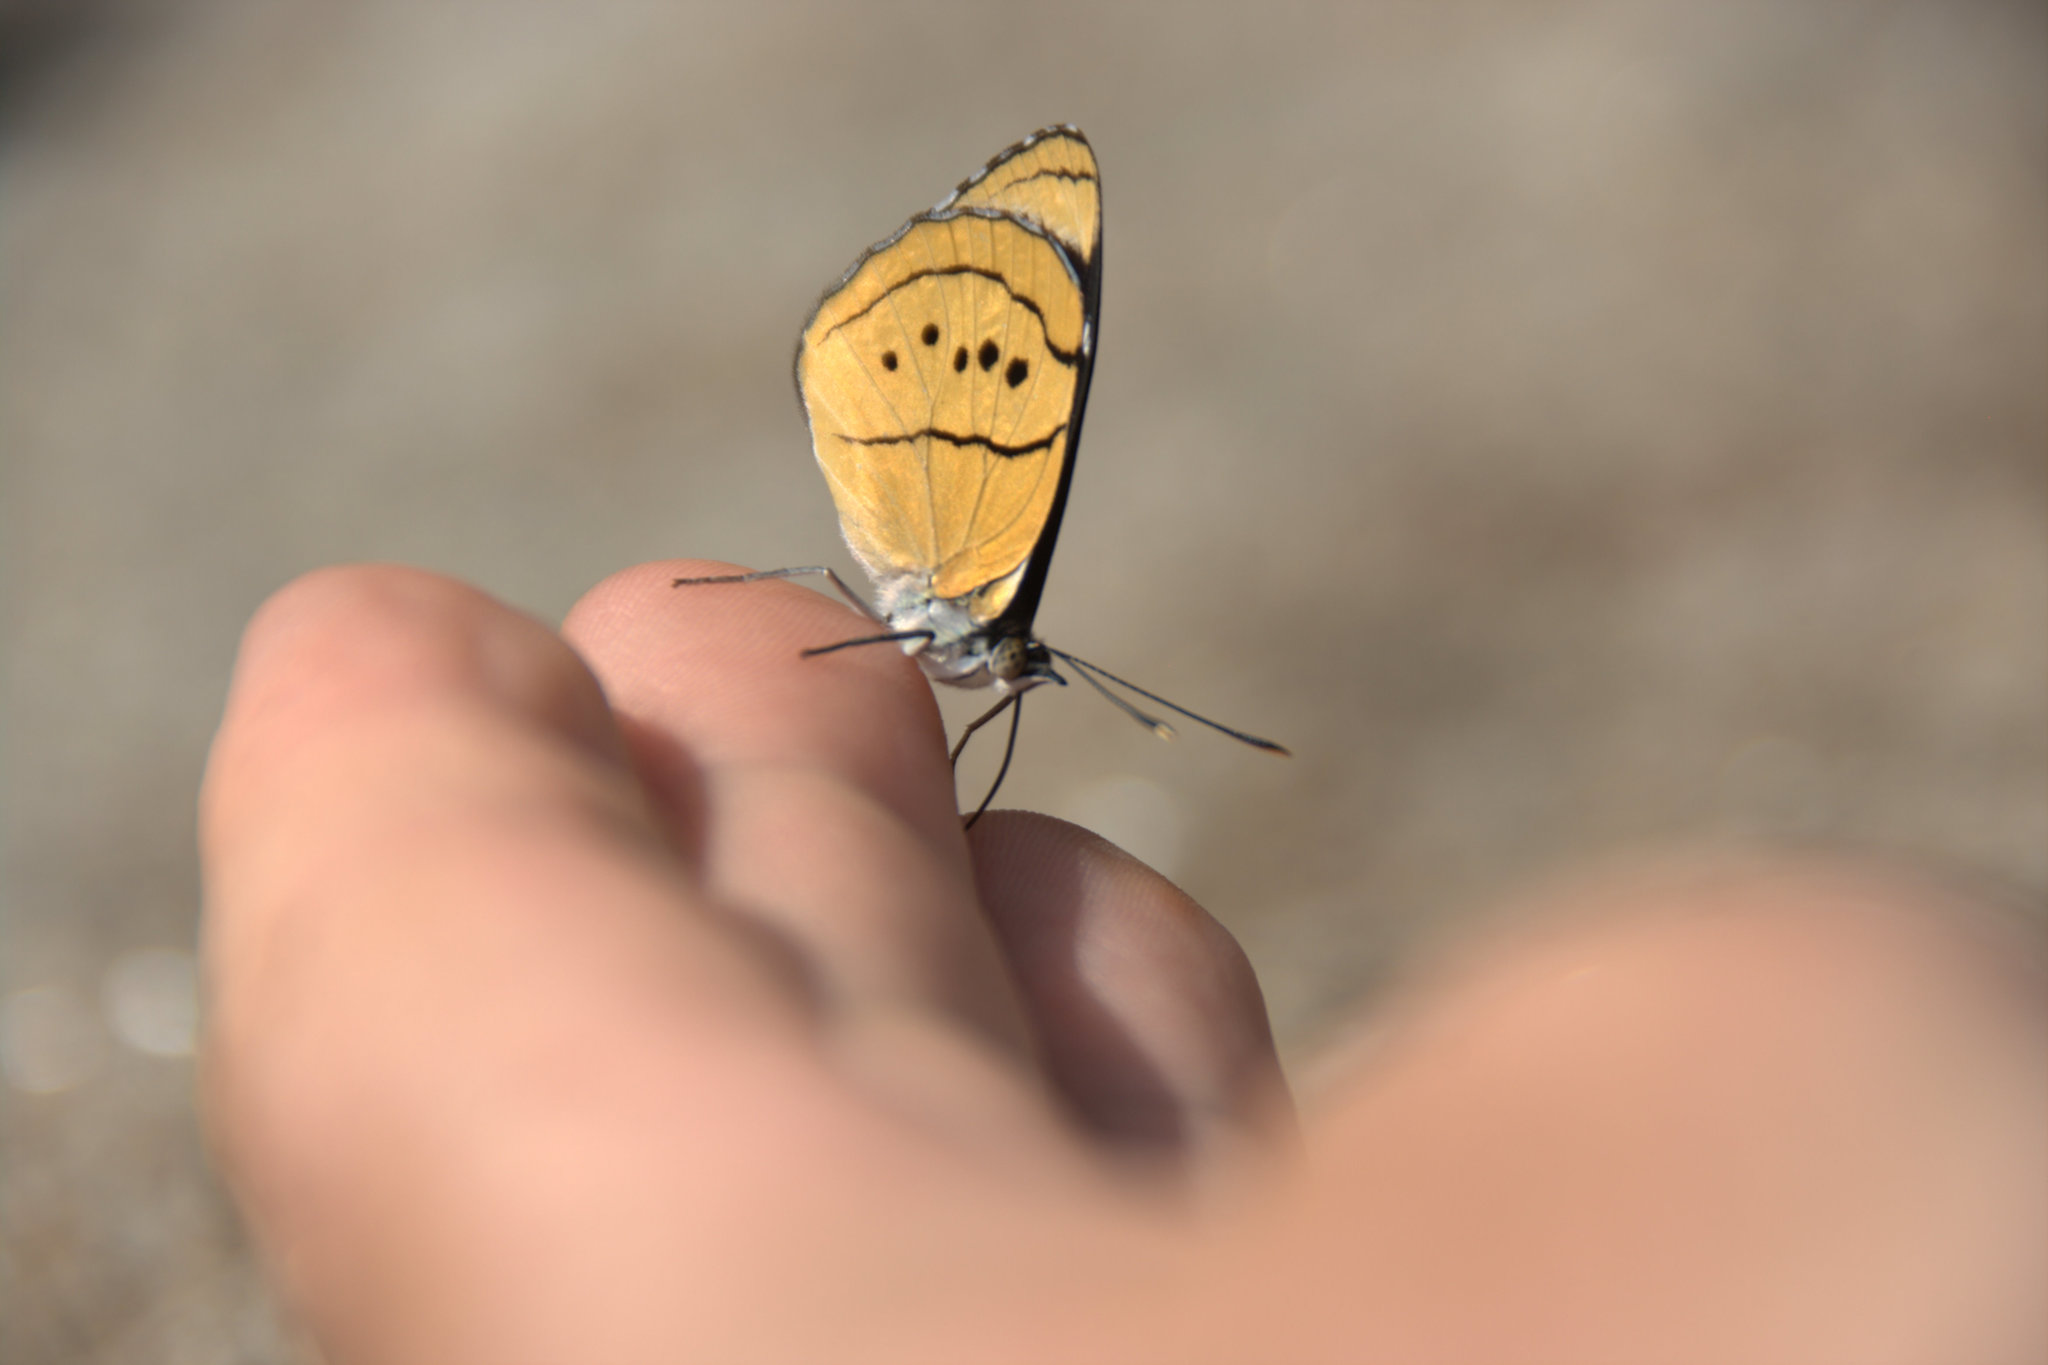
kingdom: Animalia
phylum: Arthropoda
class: Insecta
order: Lepidoptera
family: Nymphalidae
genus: Perisama
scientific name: Perisama humboldtii
